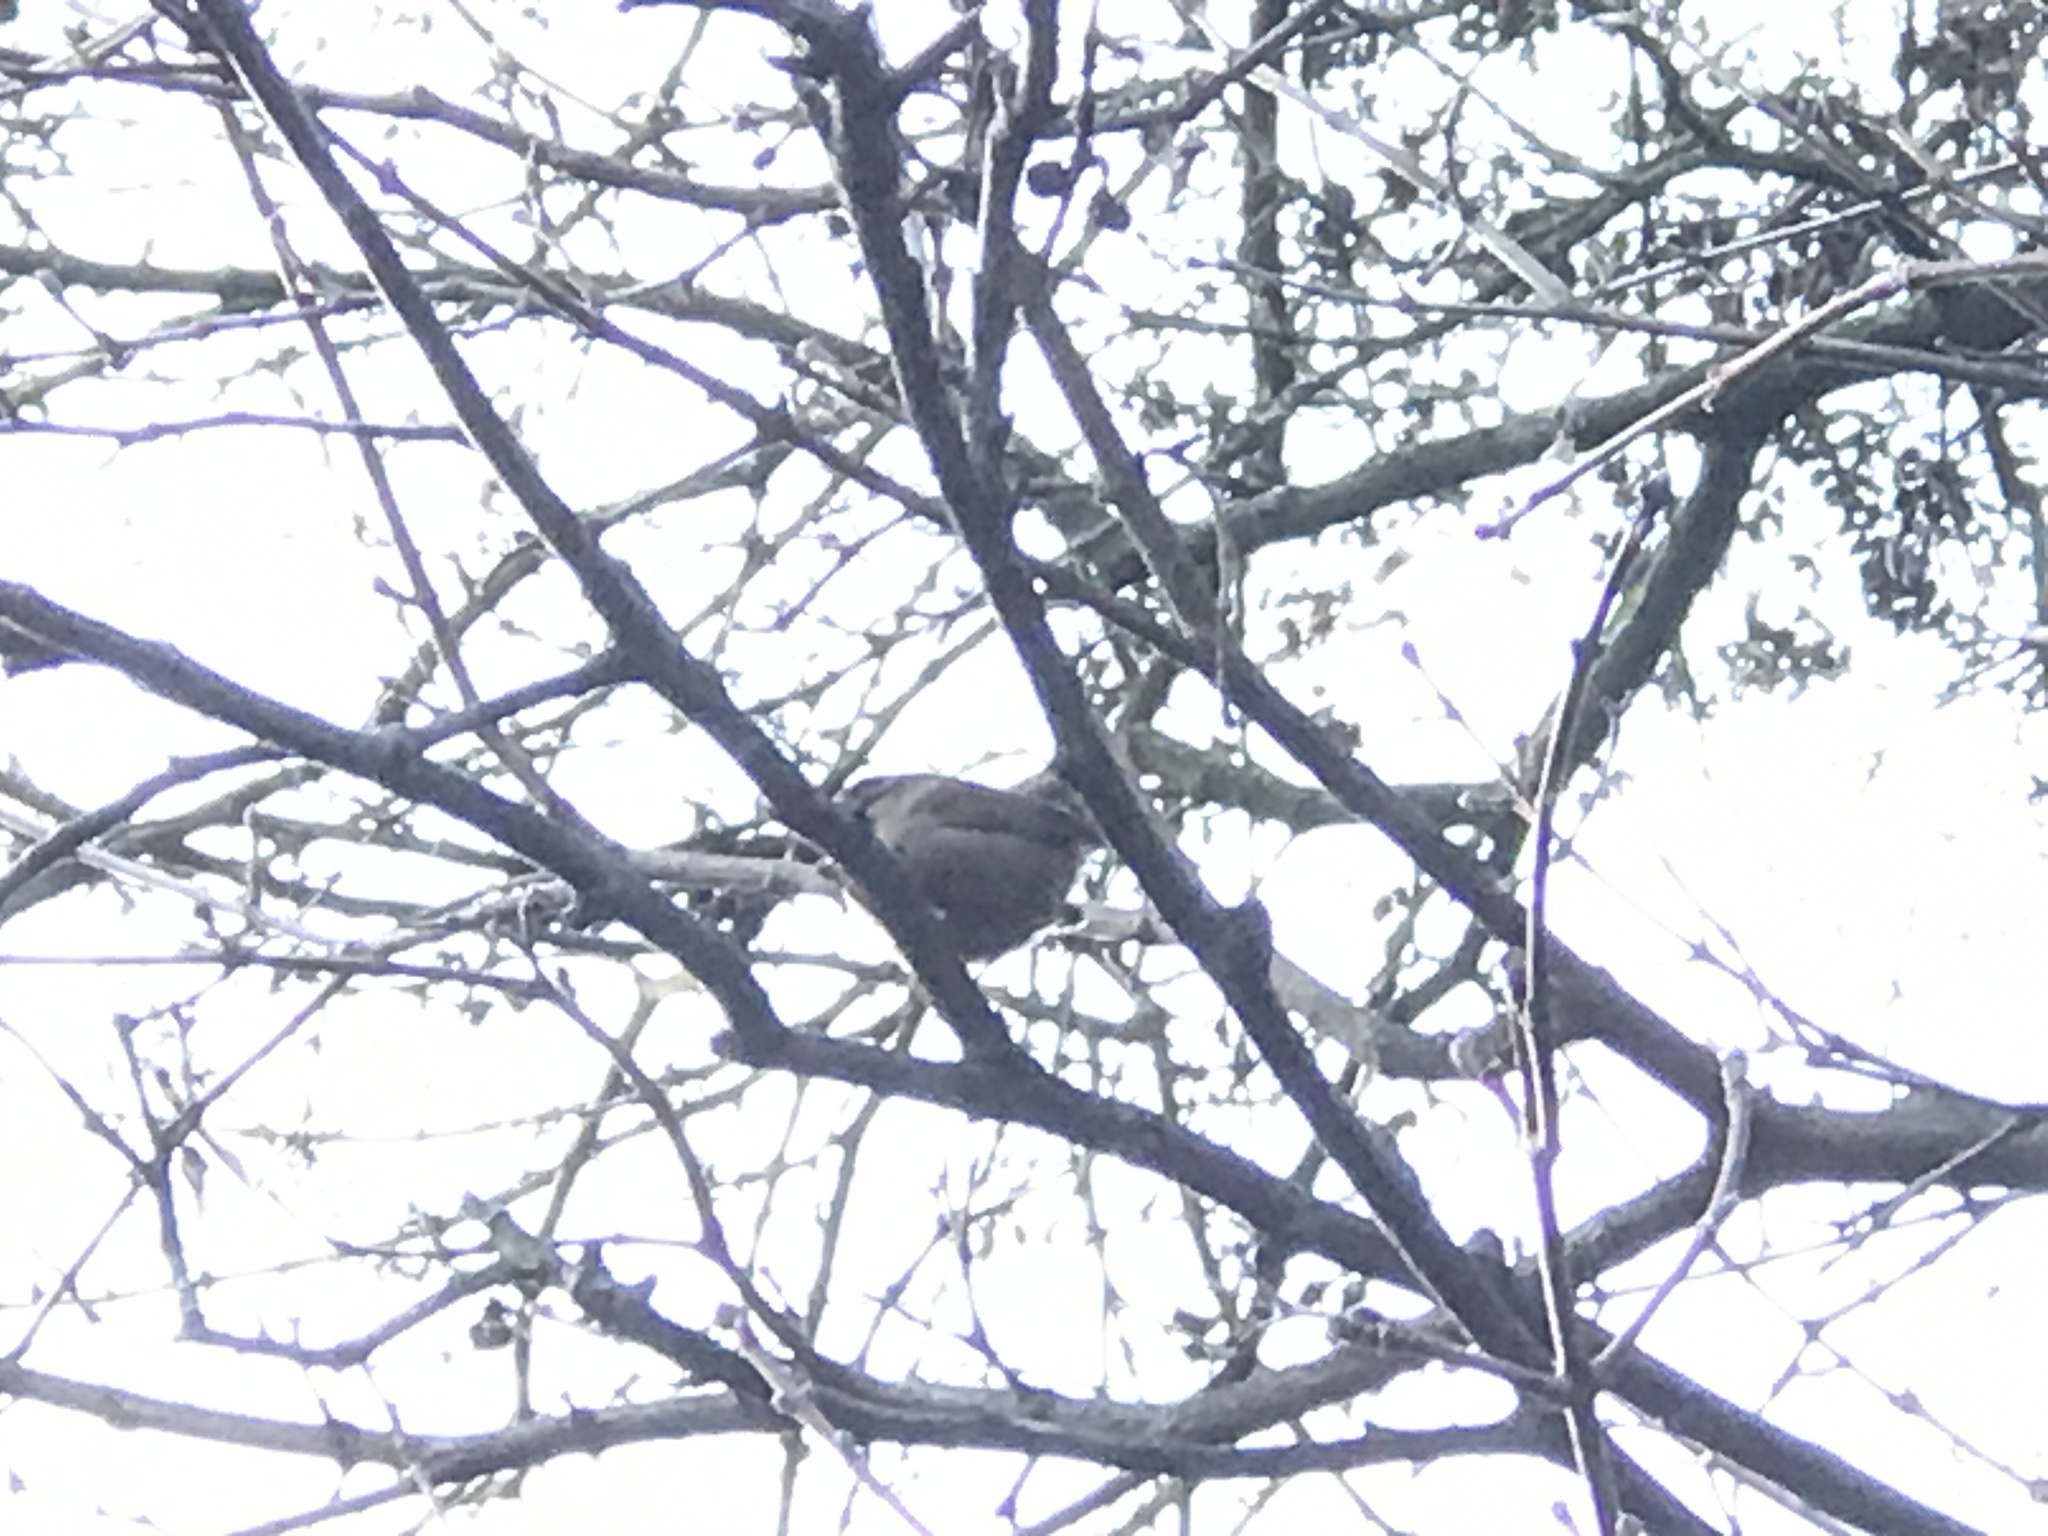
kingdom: Animalia
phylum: Chordata
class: Aves
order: Passeriformes
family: Troglodytidae
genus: Troglodytes
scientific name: Troglodytes troglodytes
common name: Eurasian wren
